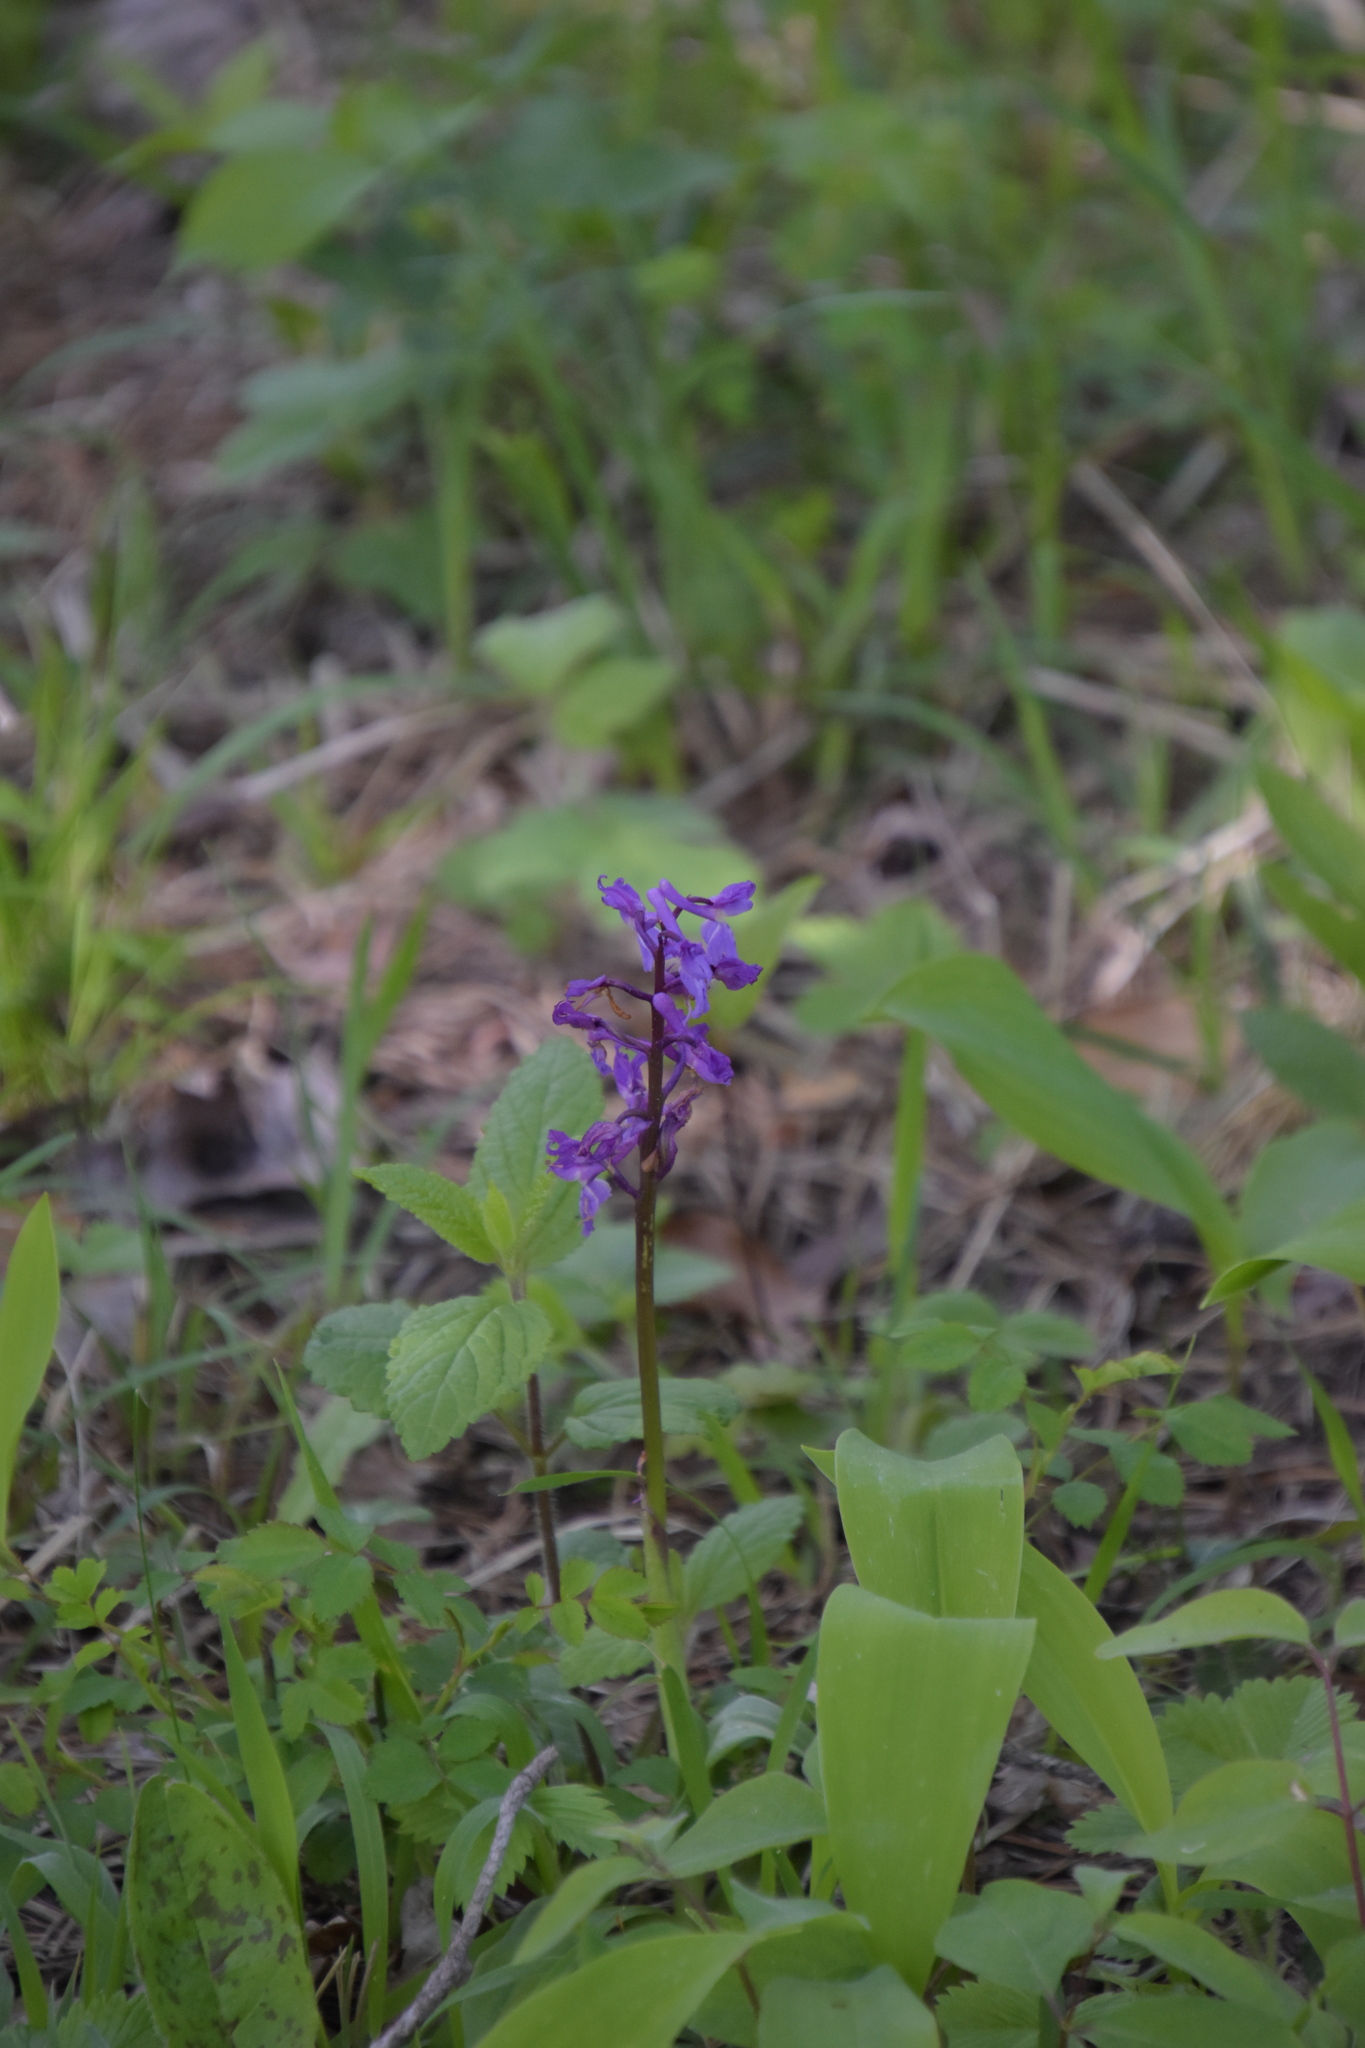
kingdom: Plantae
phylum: Tracheophyta
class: Liliopsida
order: Asparagales
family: Orchidaceae
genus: Orchis
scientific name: Orchis mascula
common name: Early-purple orchid
